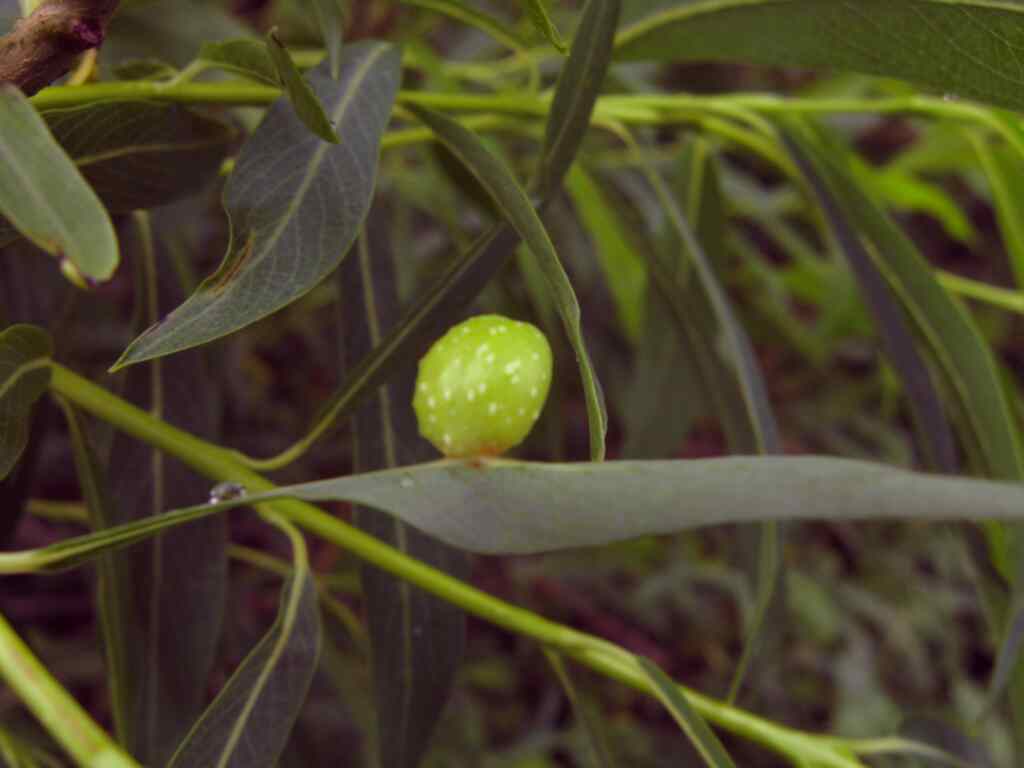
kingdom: Animalia
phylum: Arthropoda
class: Insecta
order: Hymenoptera
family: Tenthredinidae
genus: Euura
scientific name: Euura viminalis
